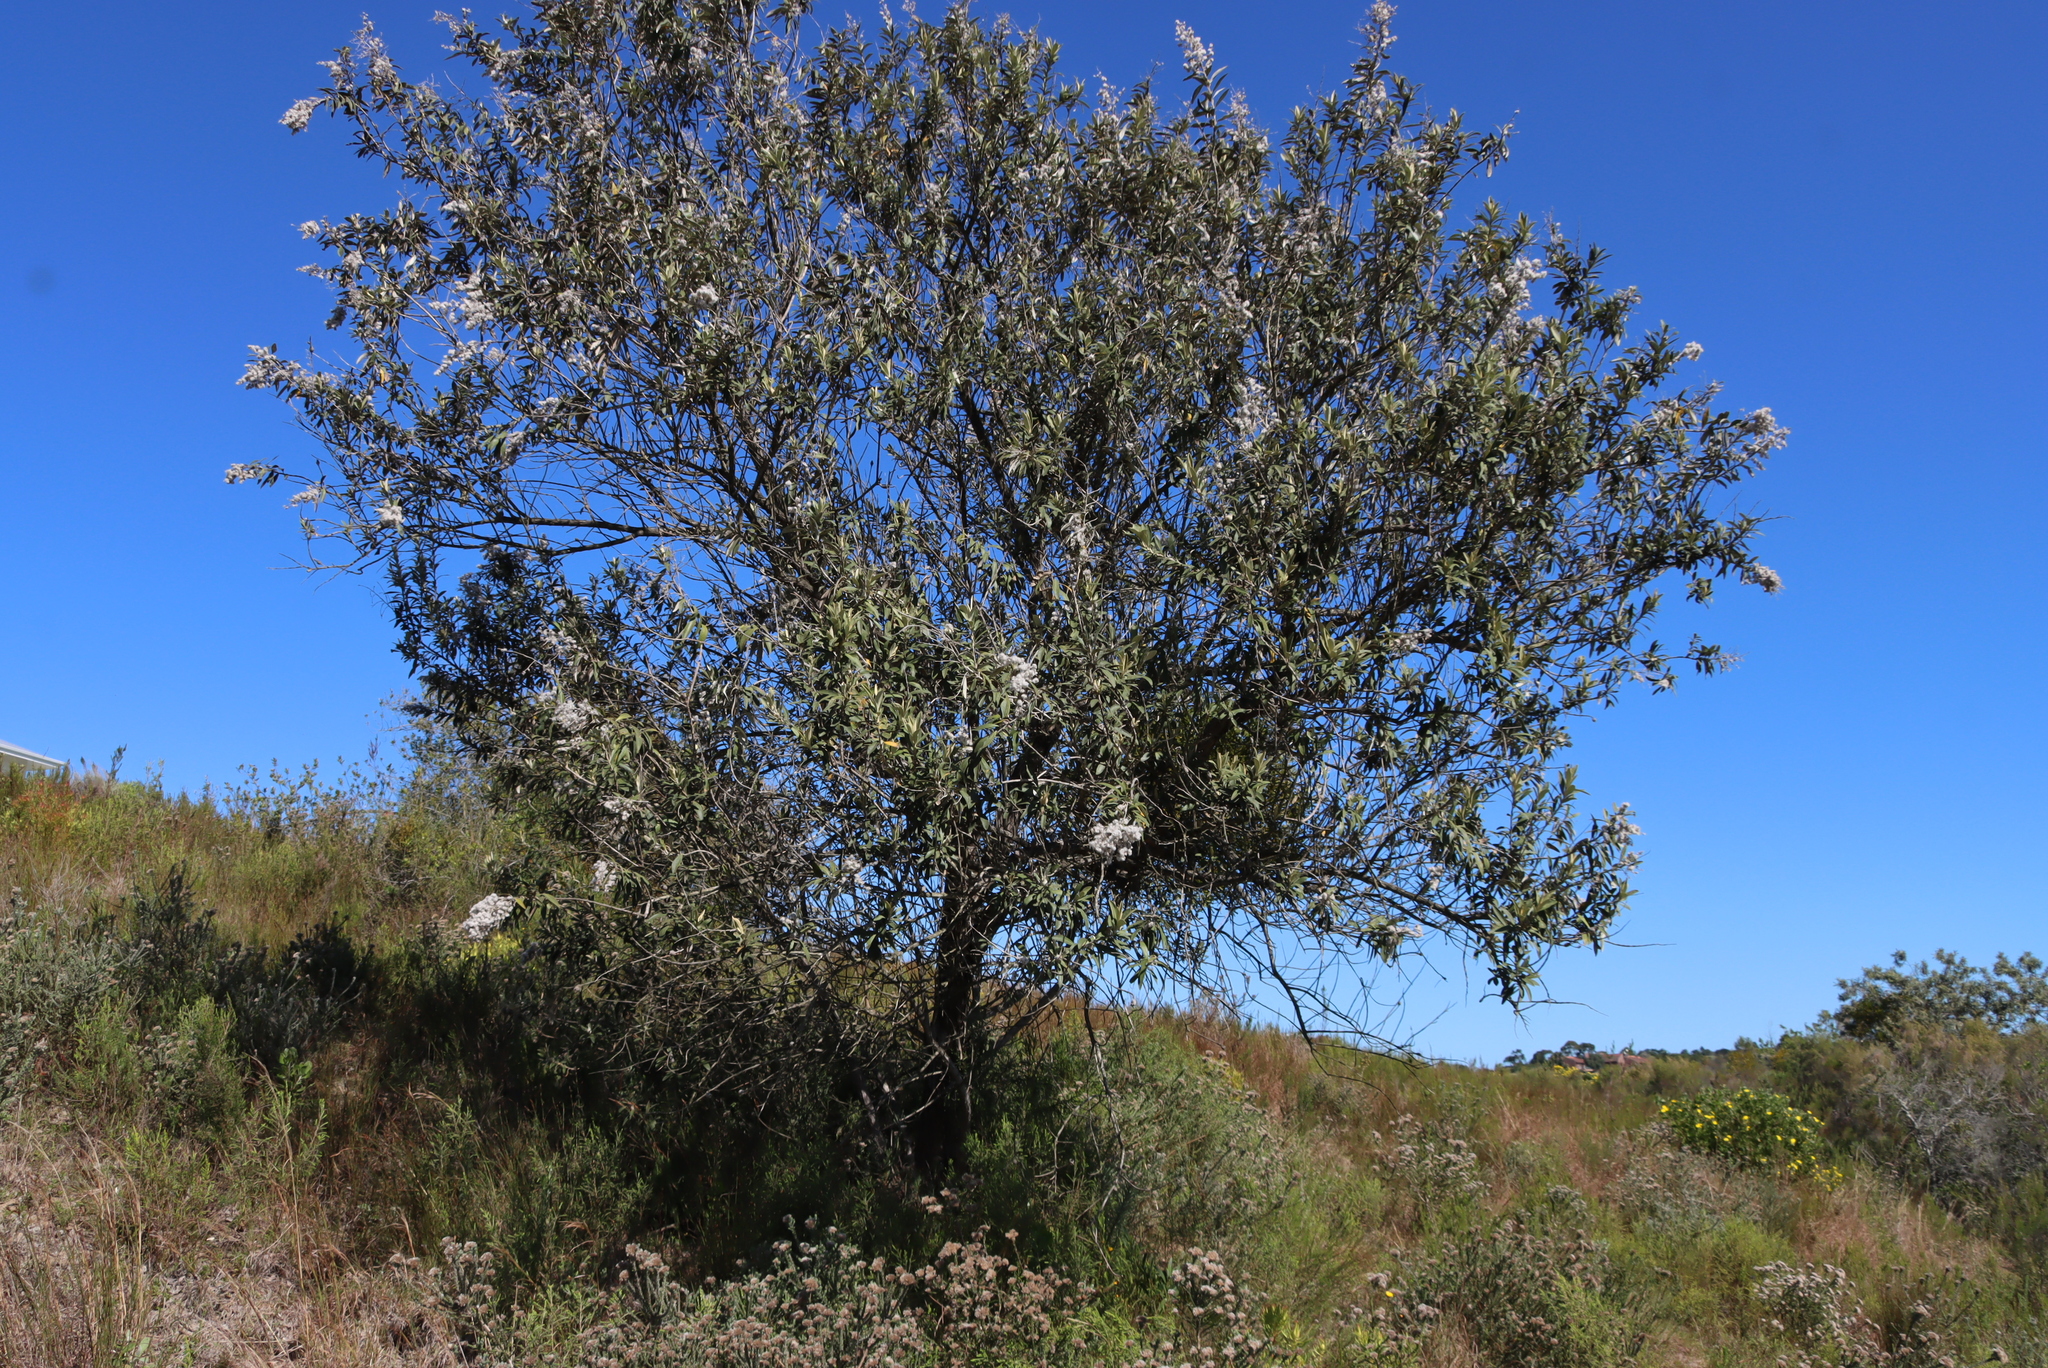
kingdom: Plantae
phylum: Tracheophyta
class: Magnoliopsida
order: Asterales
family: Asteraceae
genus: Tarchonanthus
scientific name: Tarchonanthus littoralis
